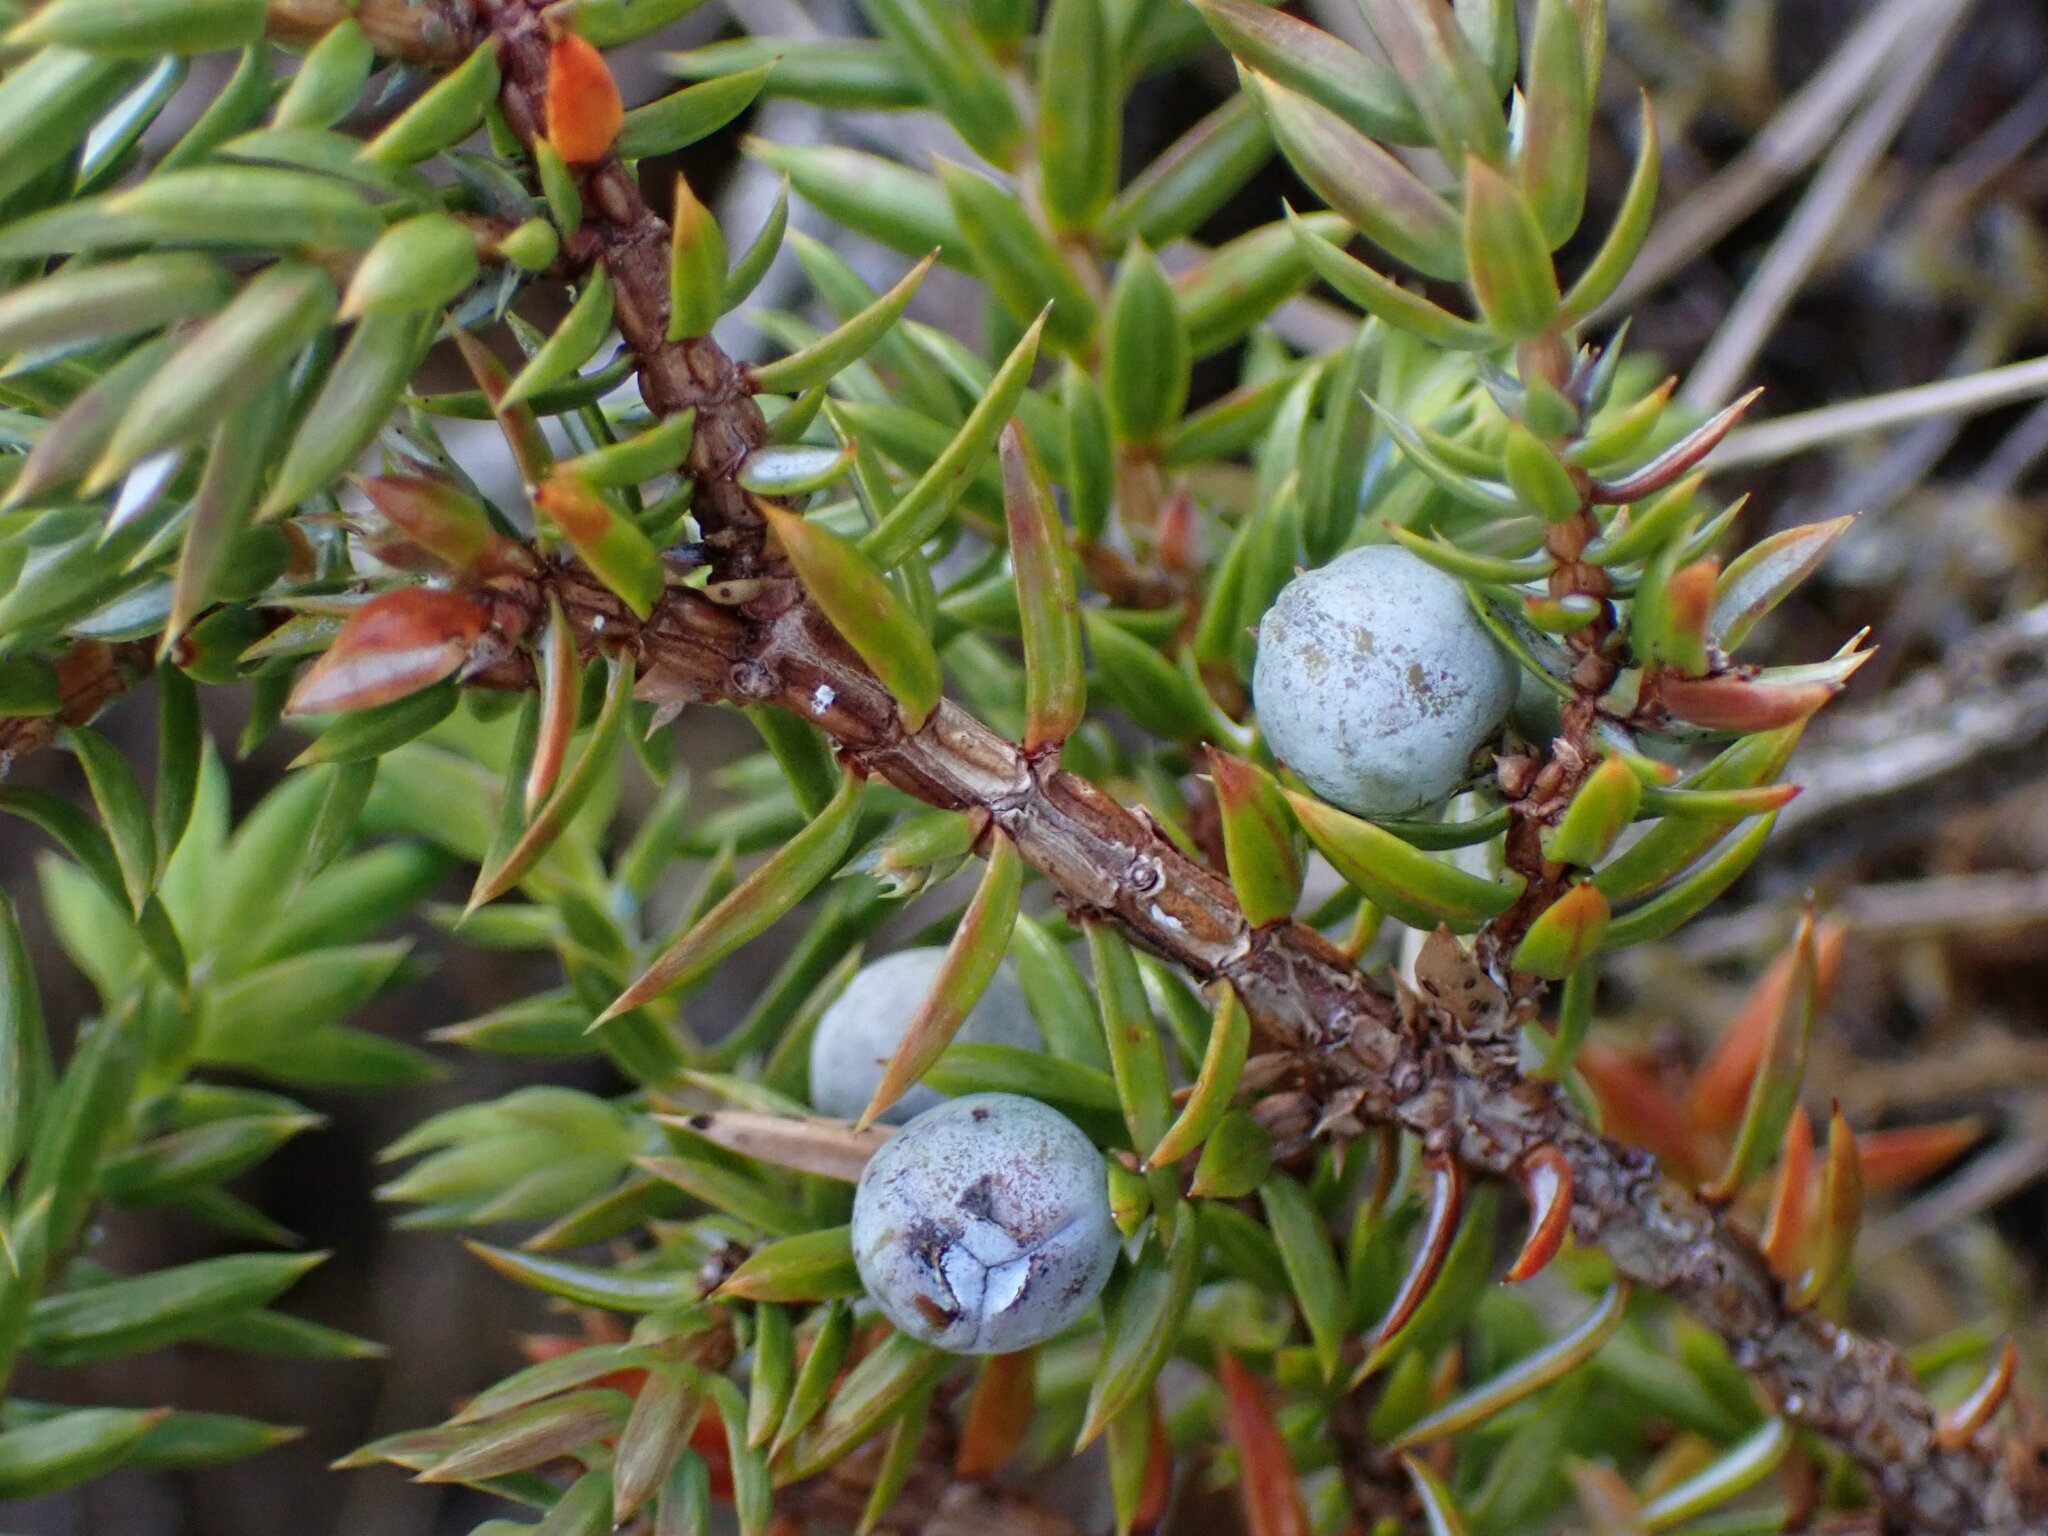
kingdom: Plantae
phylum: Tracheophyta
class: Pinopsida
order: Pinales
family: Cupressaceae
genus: Juniperus
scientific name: Juniperus communis
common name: Common juniper
